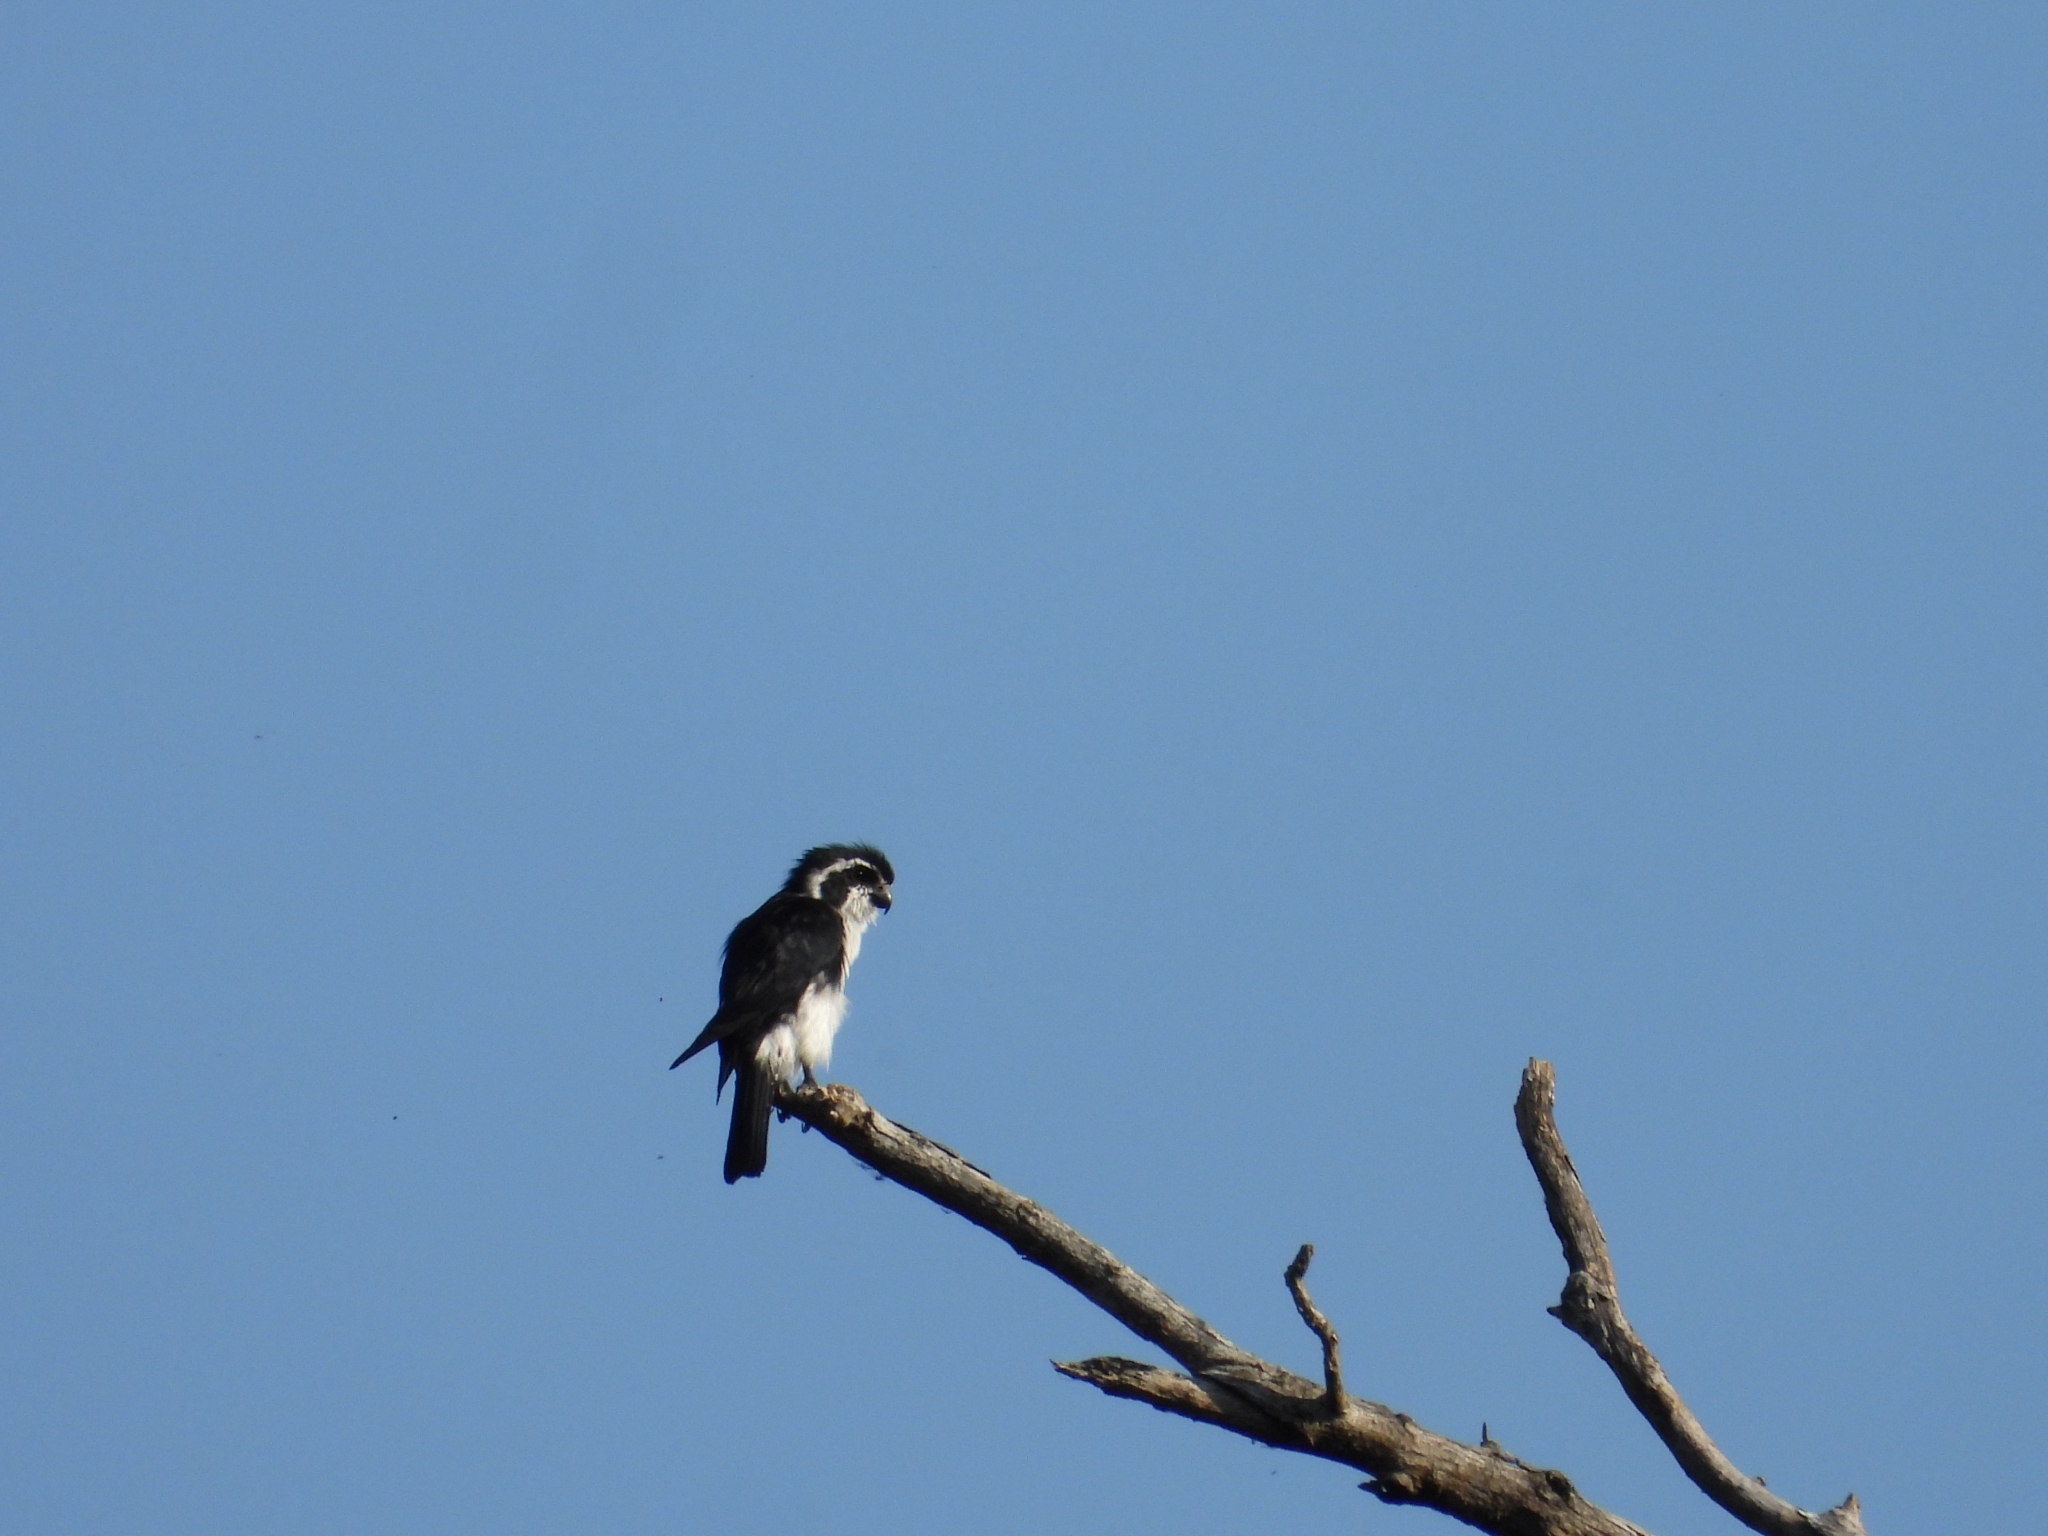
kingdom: Animalia
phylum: Chordata
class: Aves
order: Falconiformes
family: Falconidae
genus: Microhierax
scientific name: Microhierax melanoleucos
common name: Pied falconet
